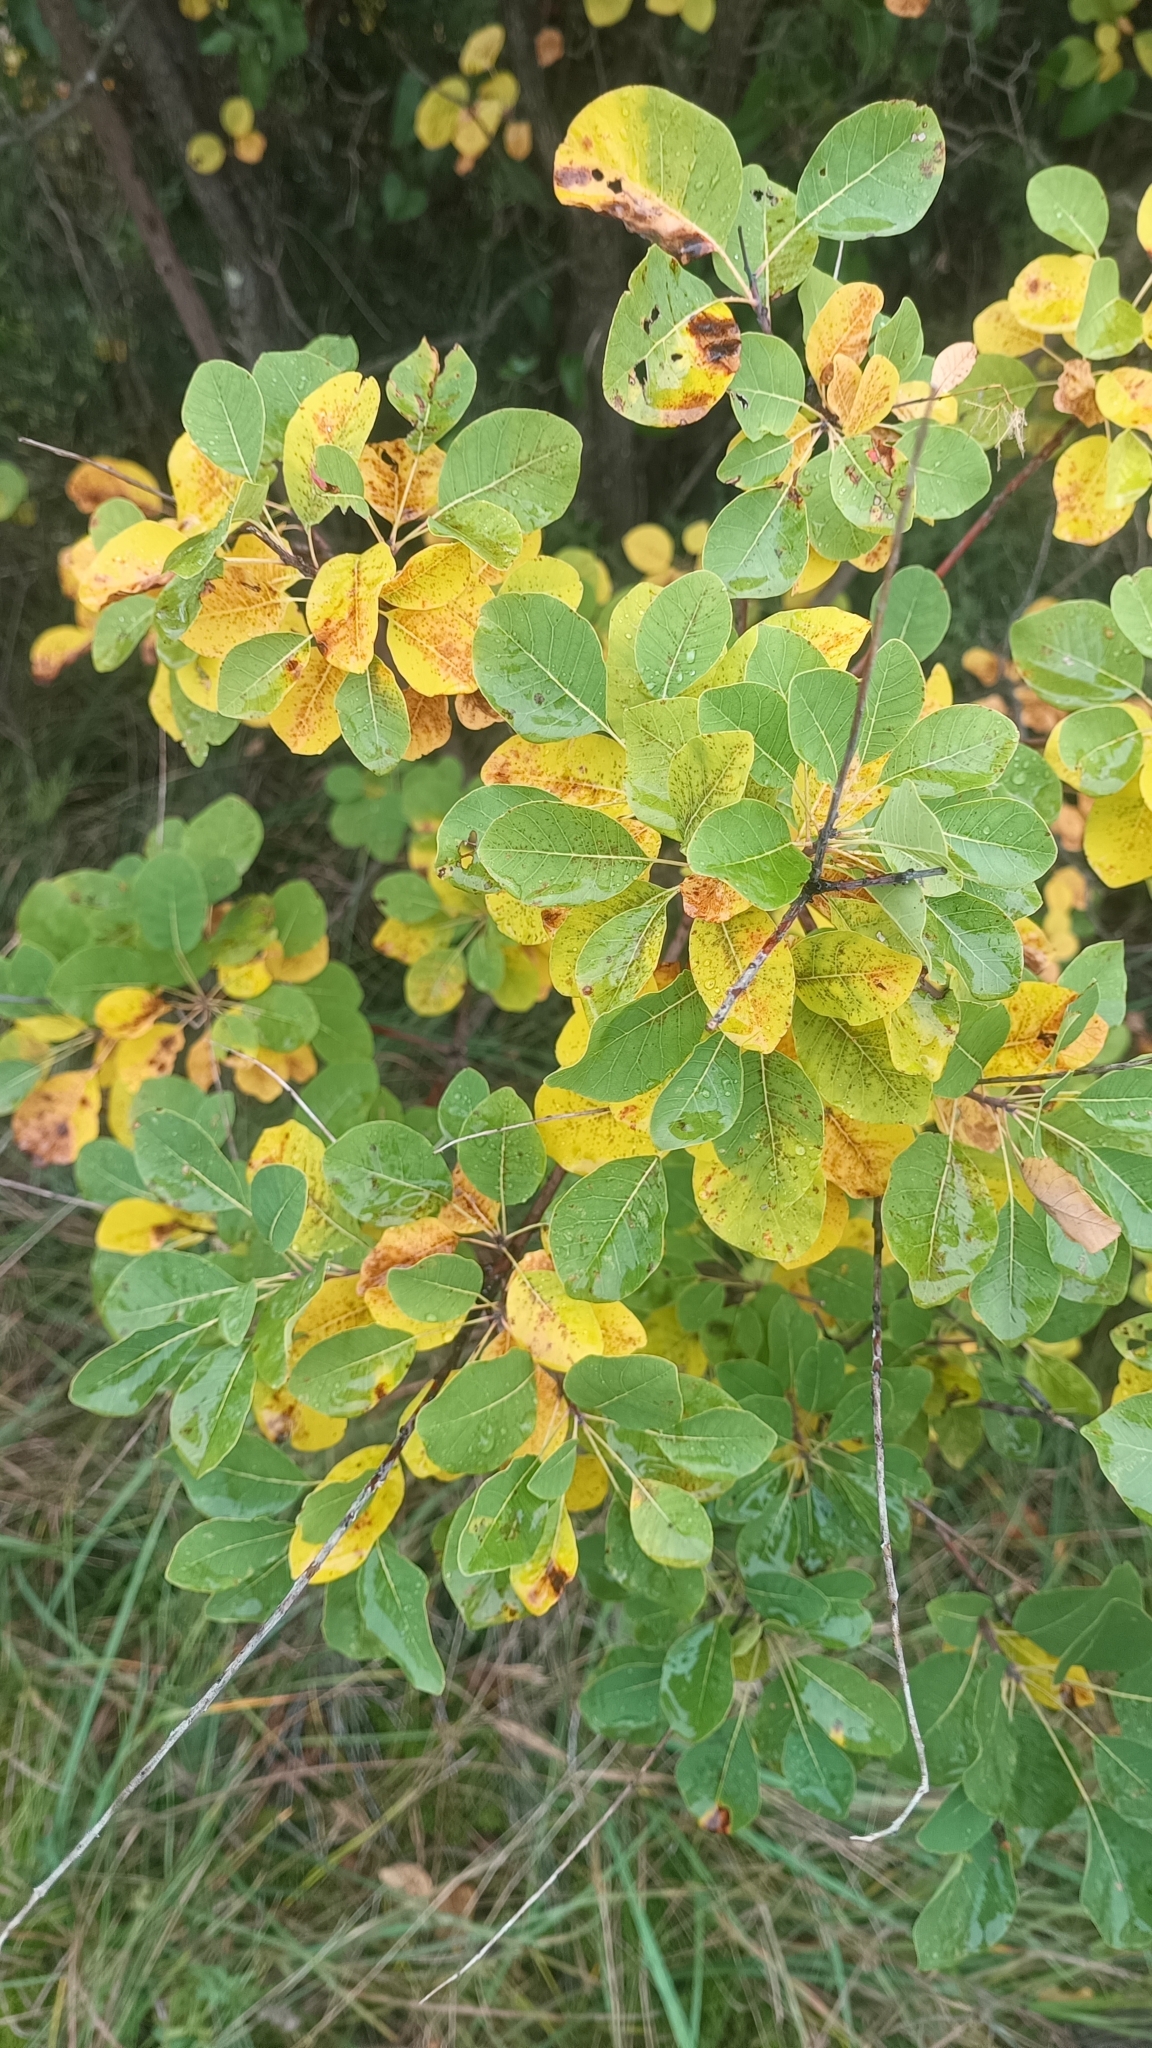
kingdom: Plantae
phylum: Tracheophyta
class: Magnoliopsida
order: Sapindales
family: Anacardiaceae
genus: Cotinus
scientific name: Cotinus coggygria
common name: Smoke-tree
